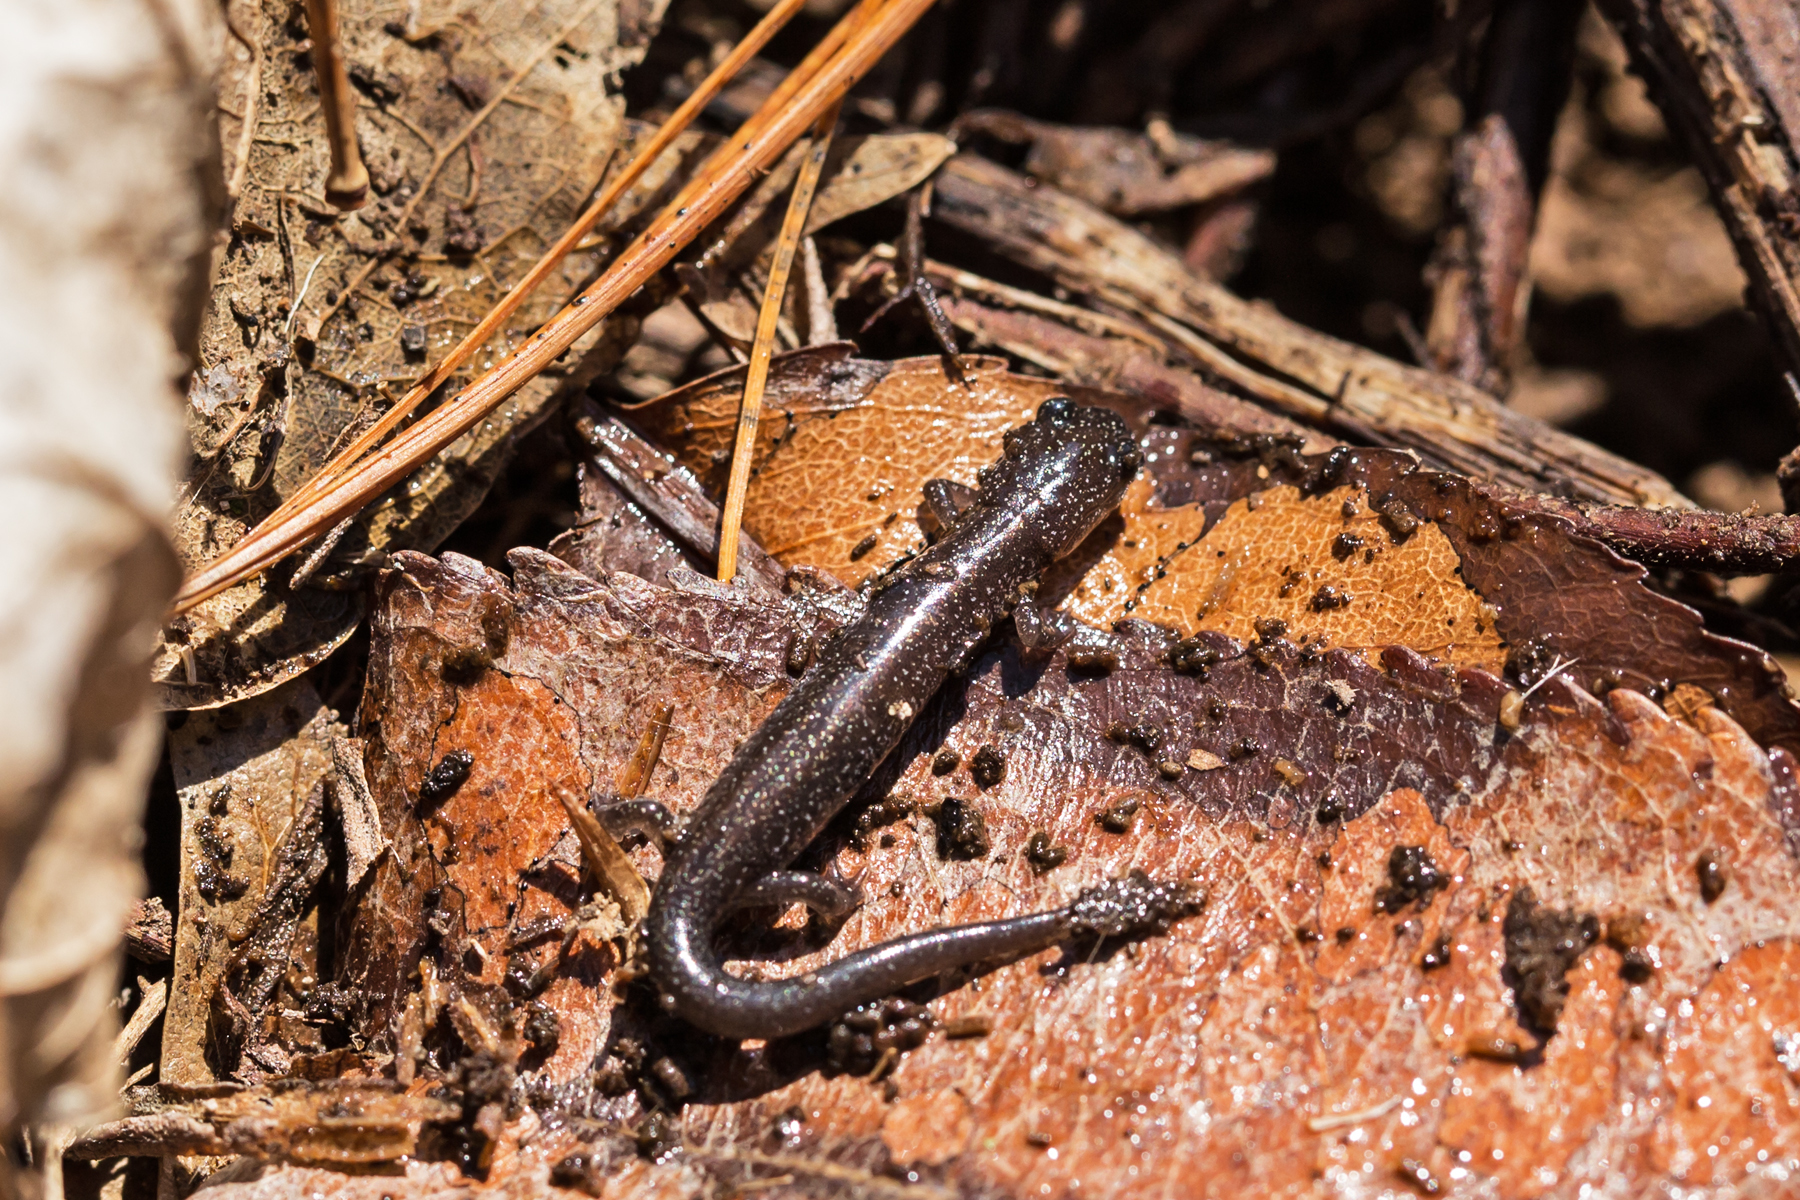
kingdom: Animalia
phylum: Chordata
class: Amphibia
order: Caudata
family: Plethodontidae
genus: Plethodon
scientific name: Plethodon cinereus
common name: Redback salamander
